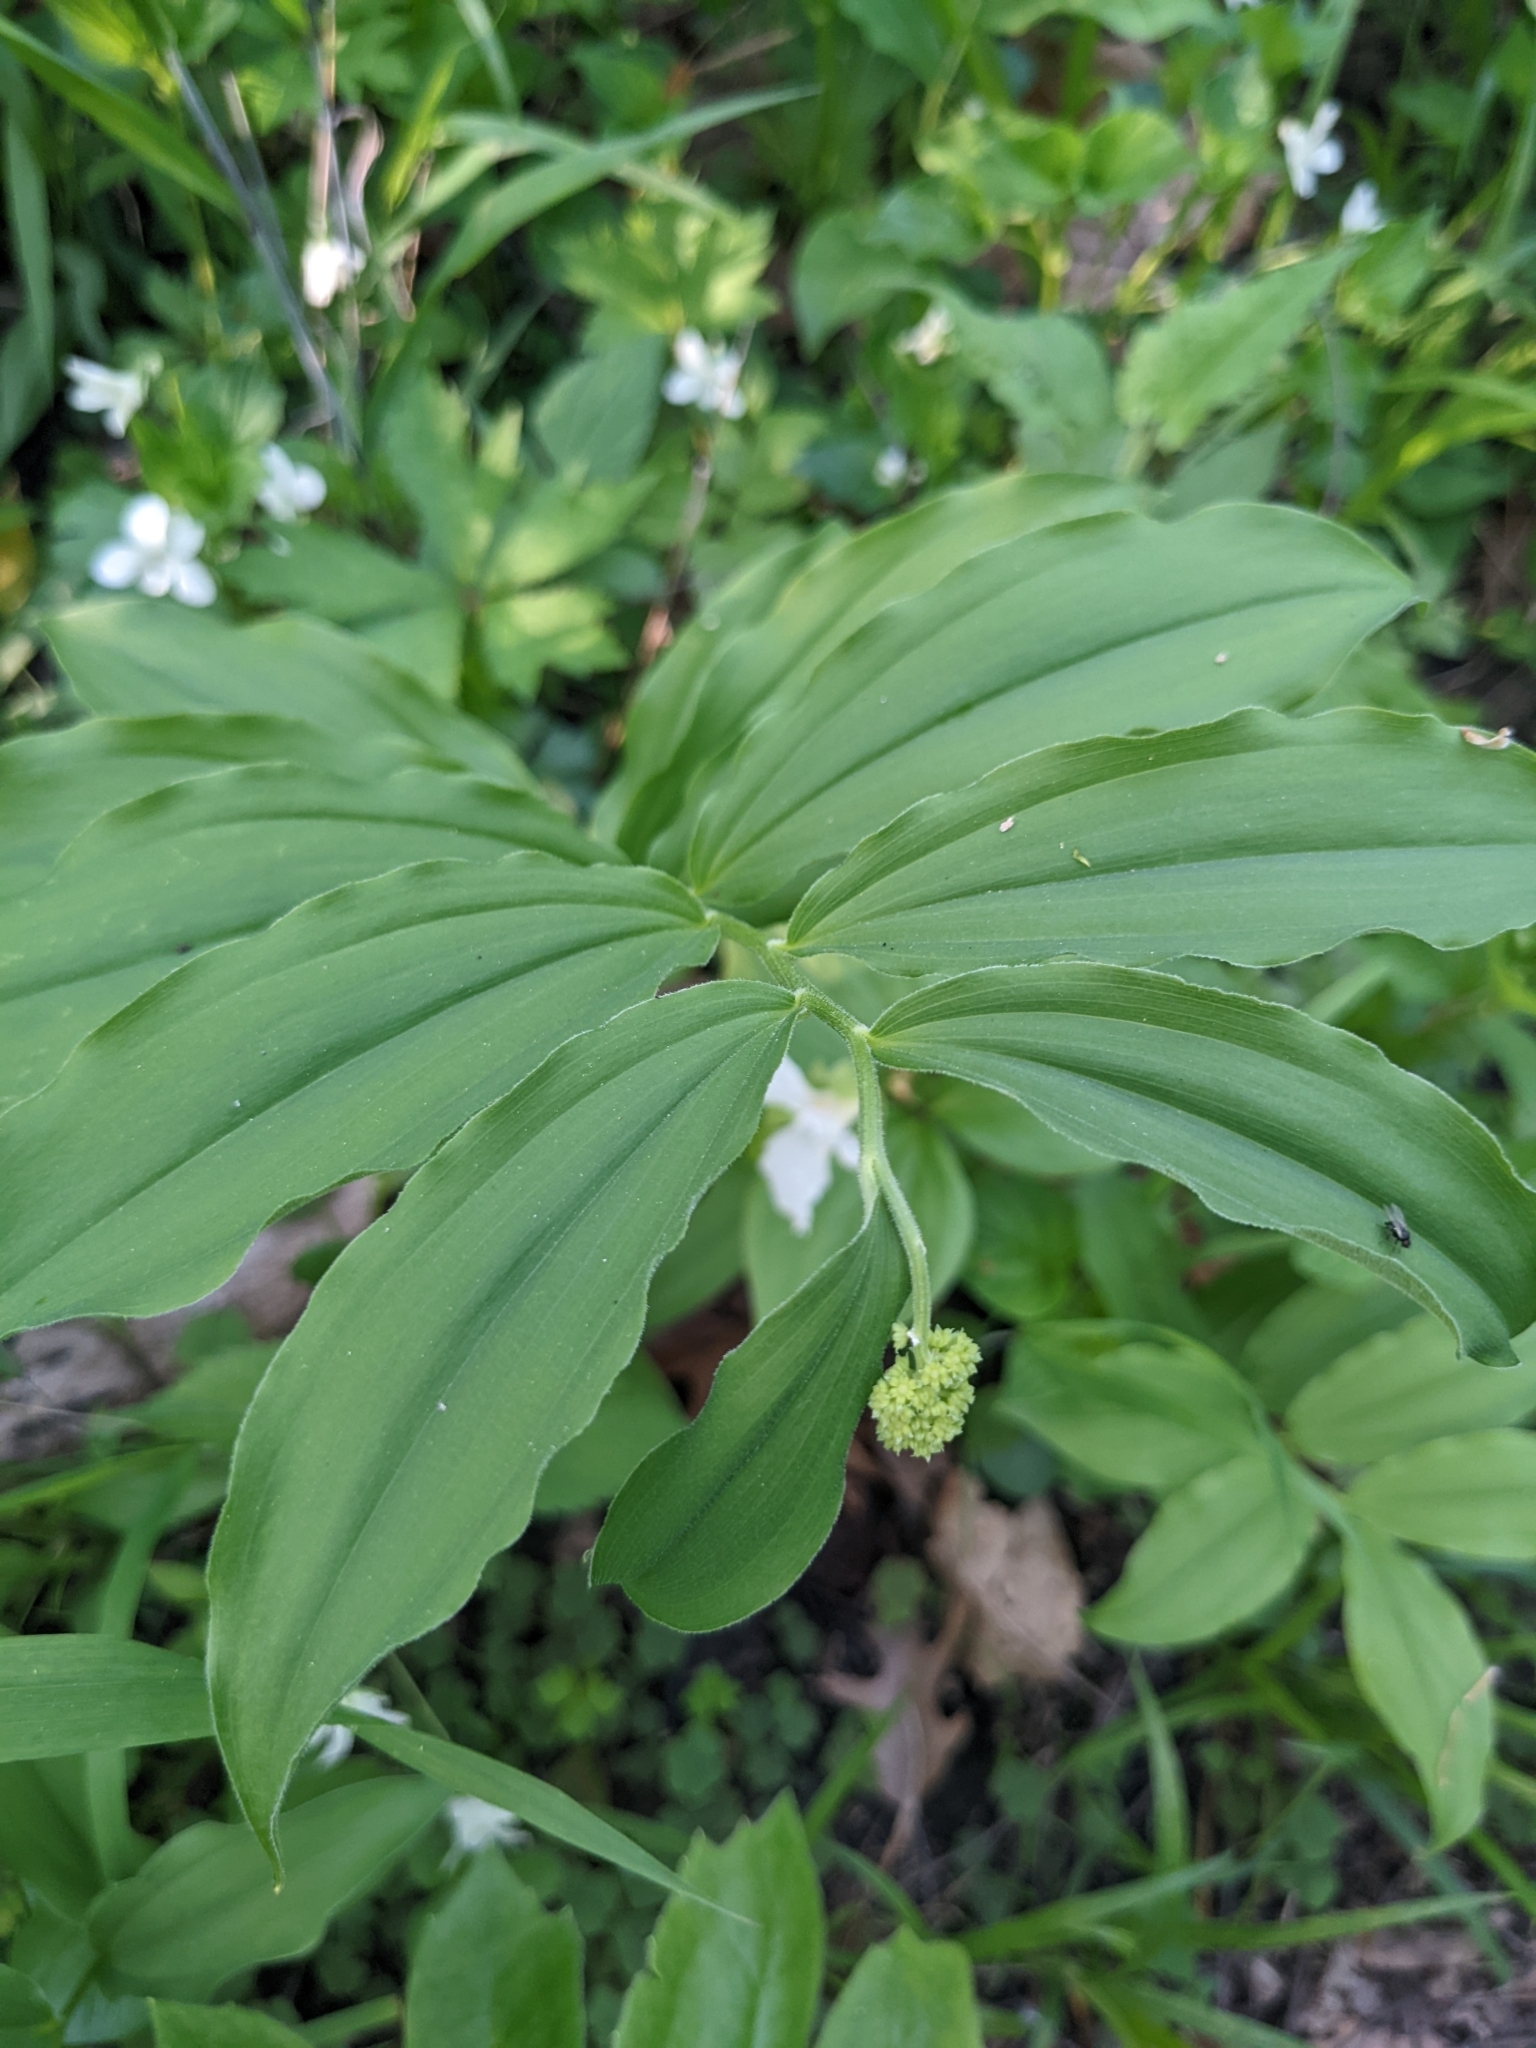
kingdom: Plantae
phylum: Tracheophyta
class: Liliopsida
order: Asparagales
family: Asparagaceae
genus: Maianthemum
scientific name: Maianthemum racemosum
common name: False spikenard
